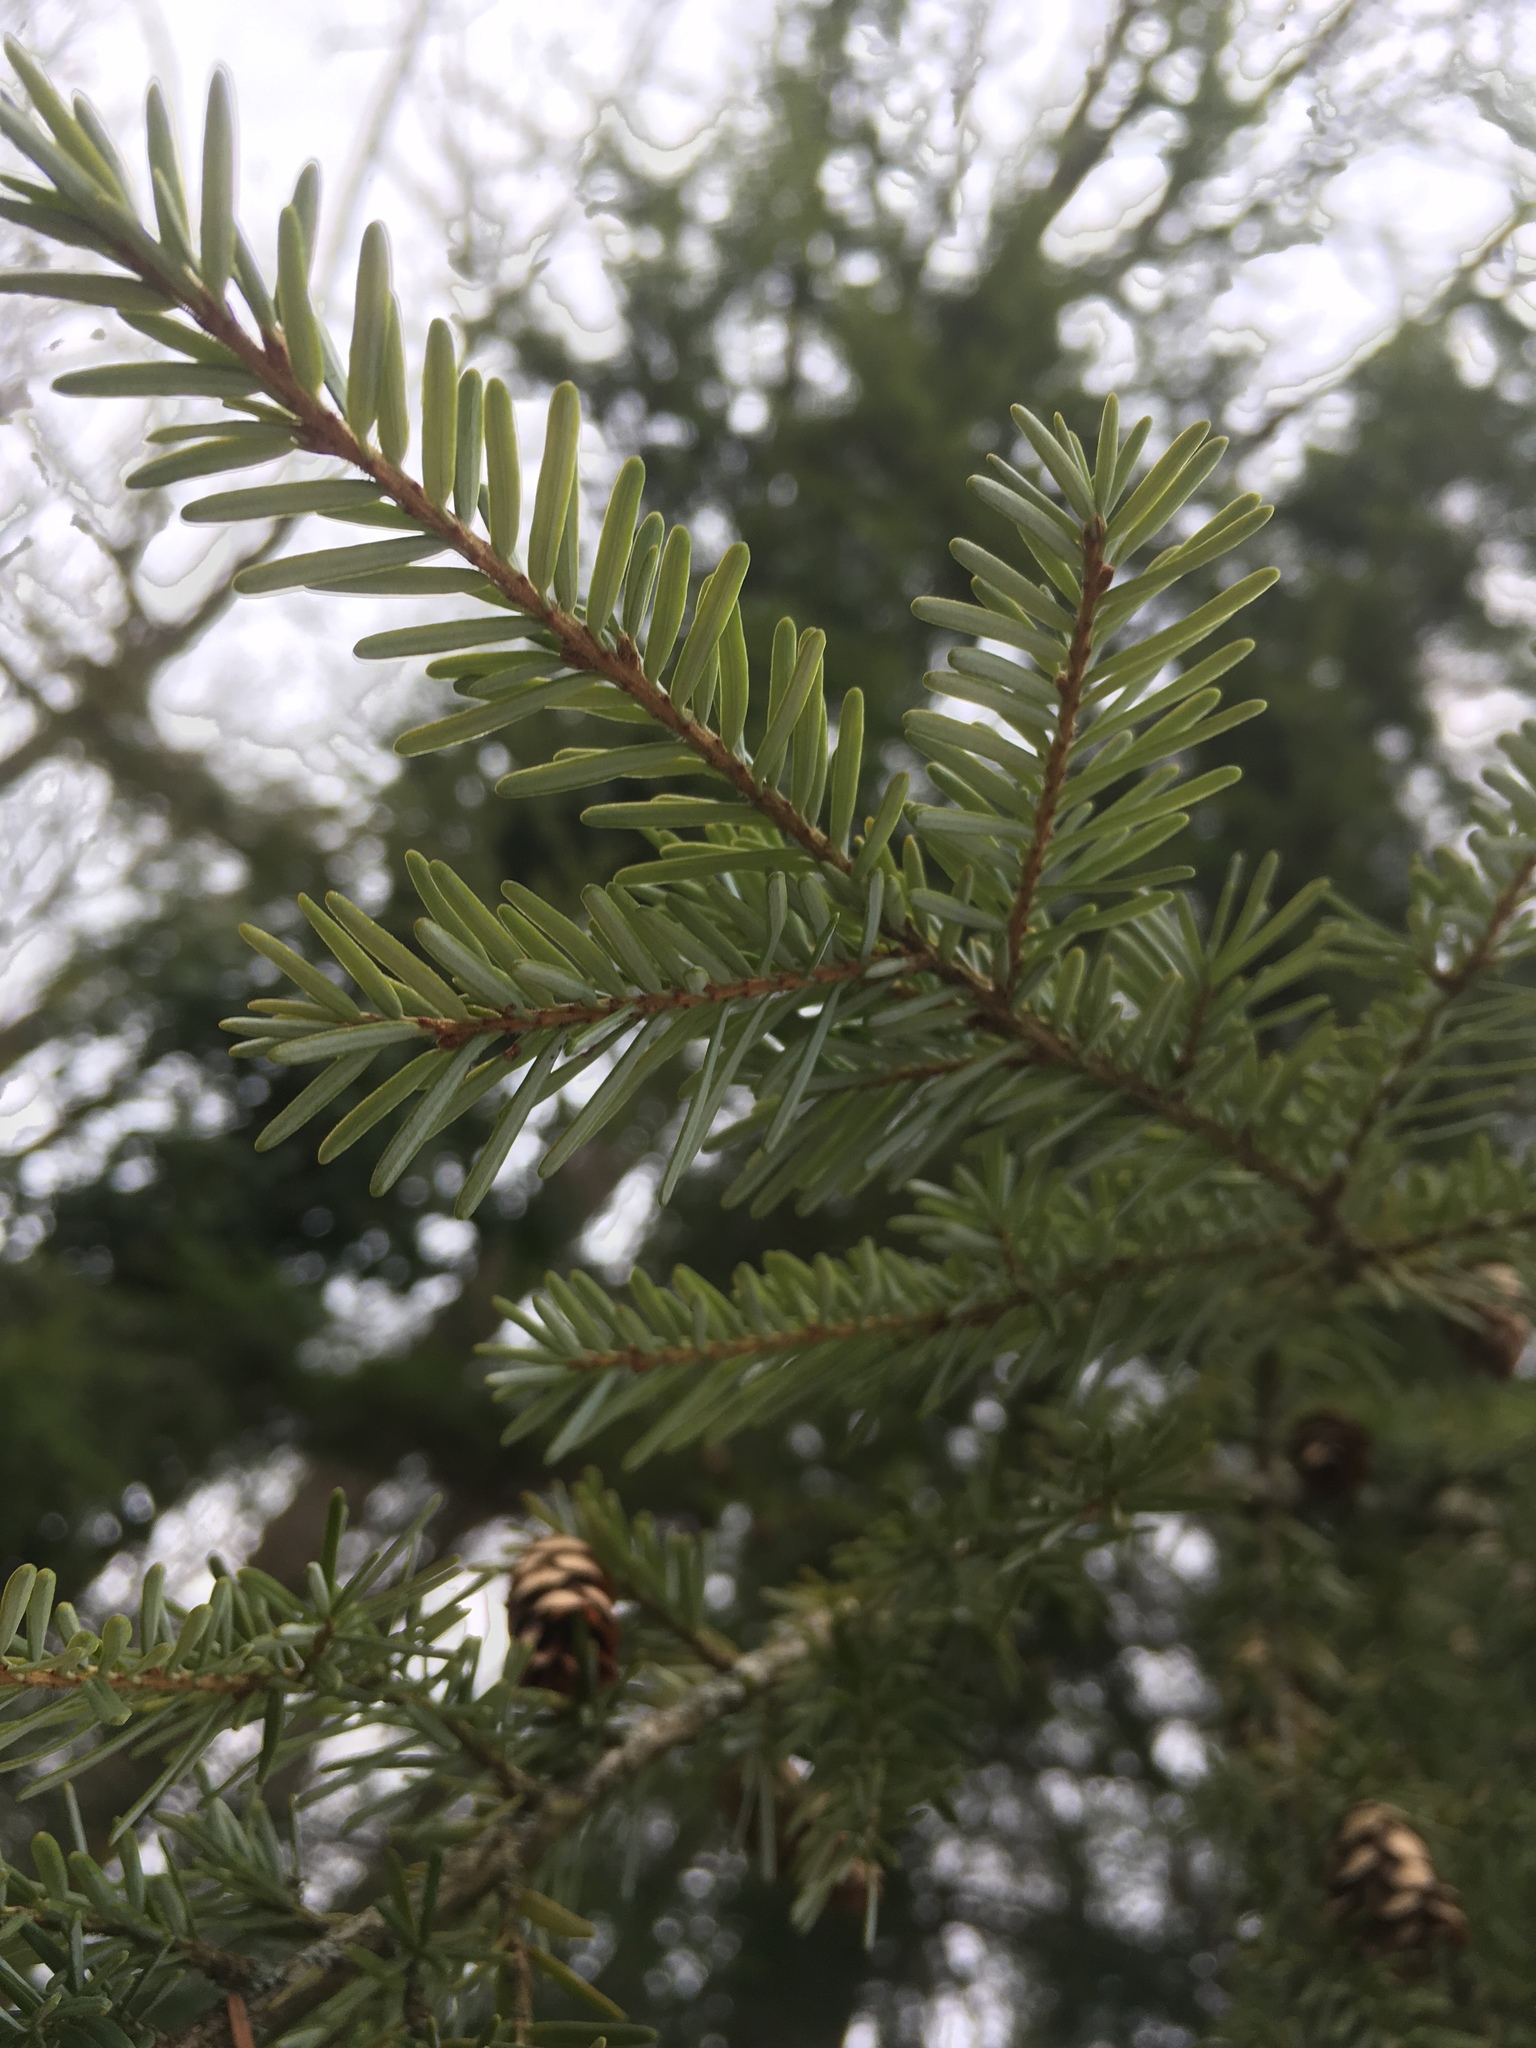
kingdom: Plantae
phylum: Tracheophyta
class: Pinopsida
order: Pinales
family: Pinaceae
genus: Tsuga
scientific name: Tsuga heterophylla
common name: Western hemlock
